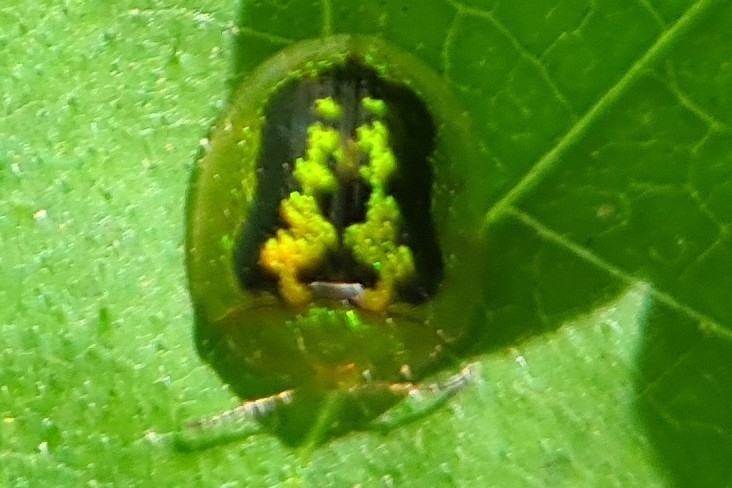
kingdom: Animalia
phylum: Arthropoda
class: Insecta
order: Coleoptera
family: Chrysomelidae
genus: Cassida
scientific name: Cassida diomma
